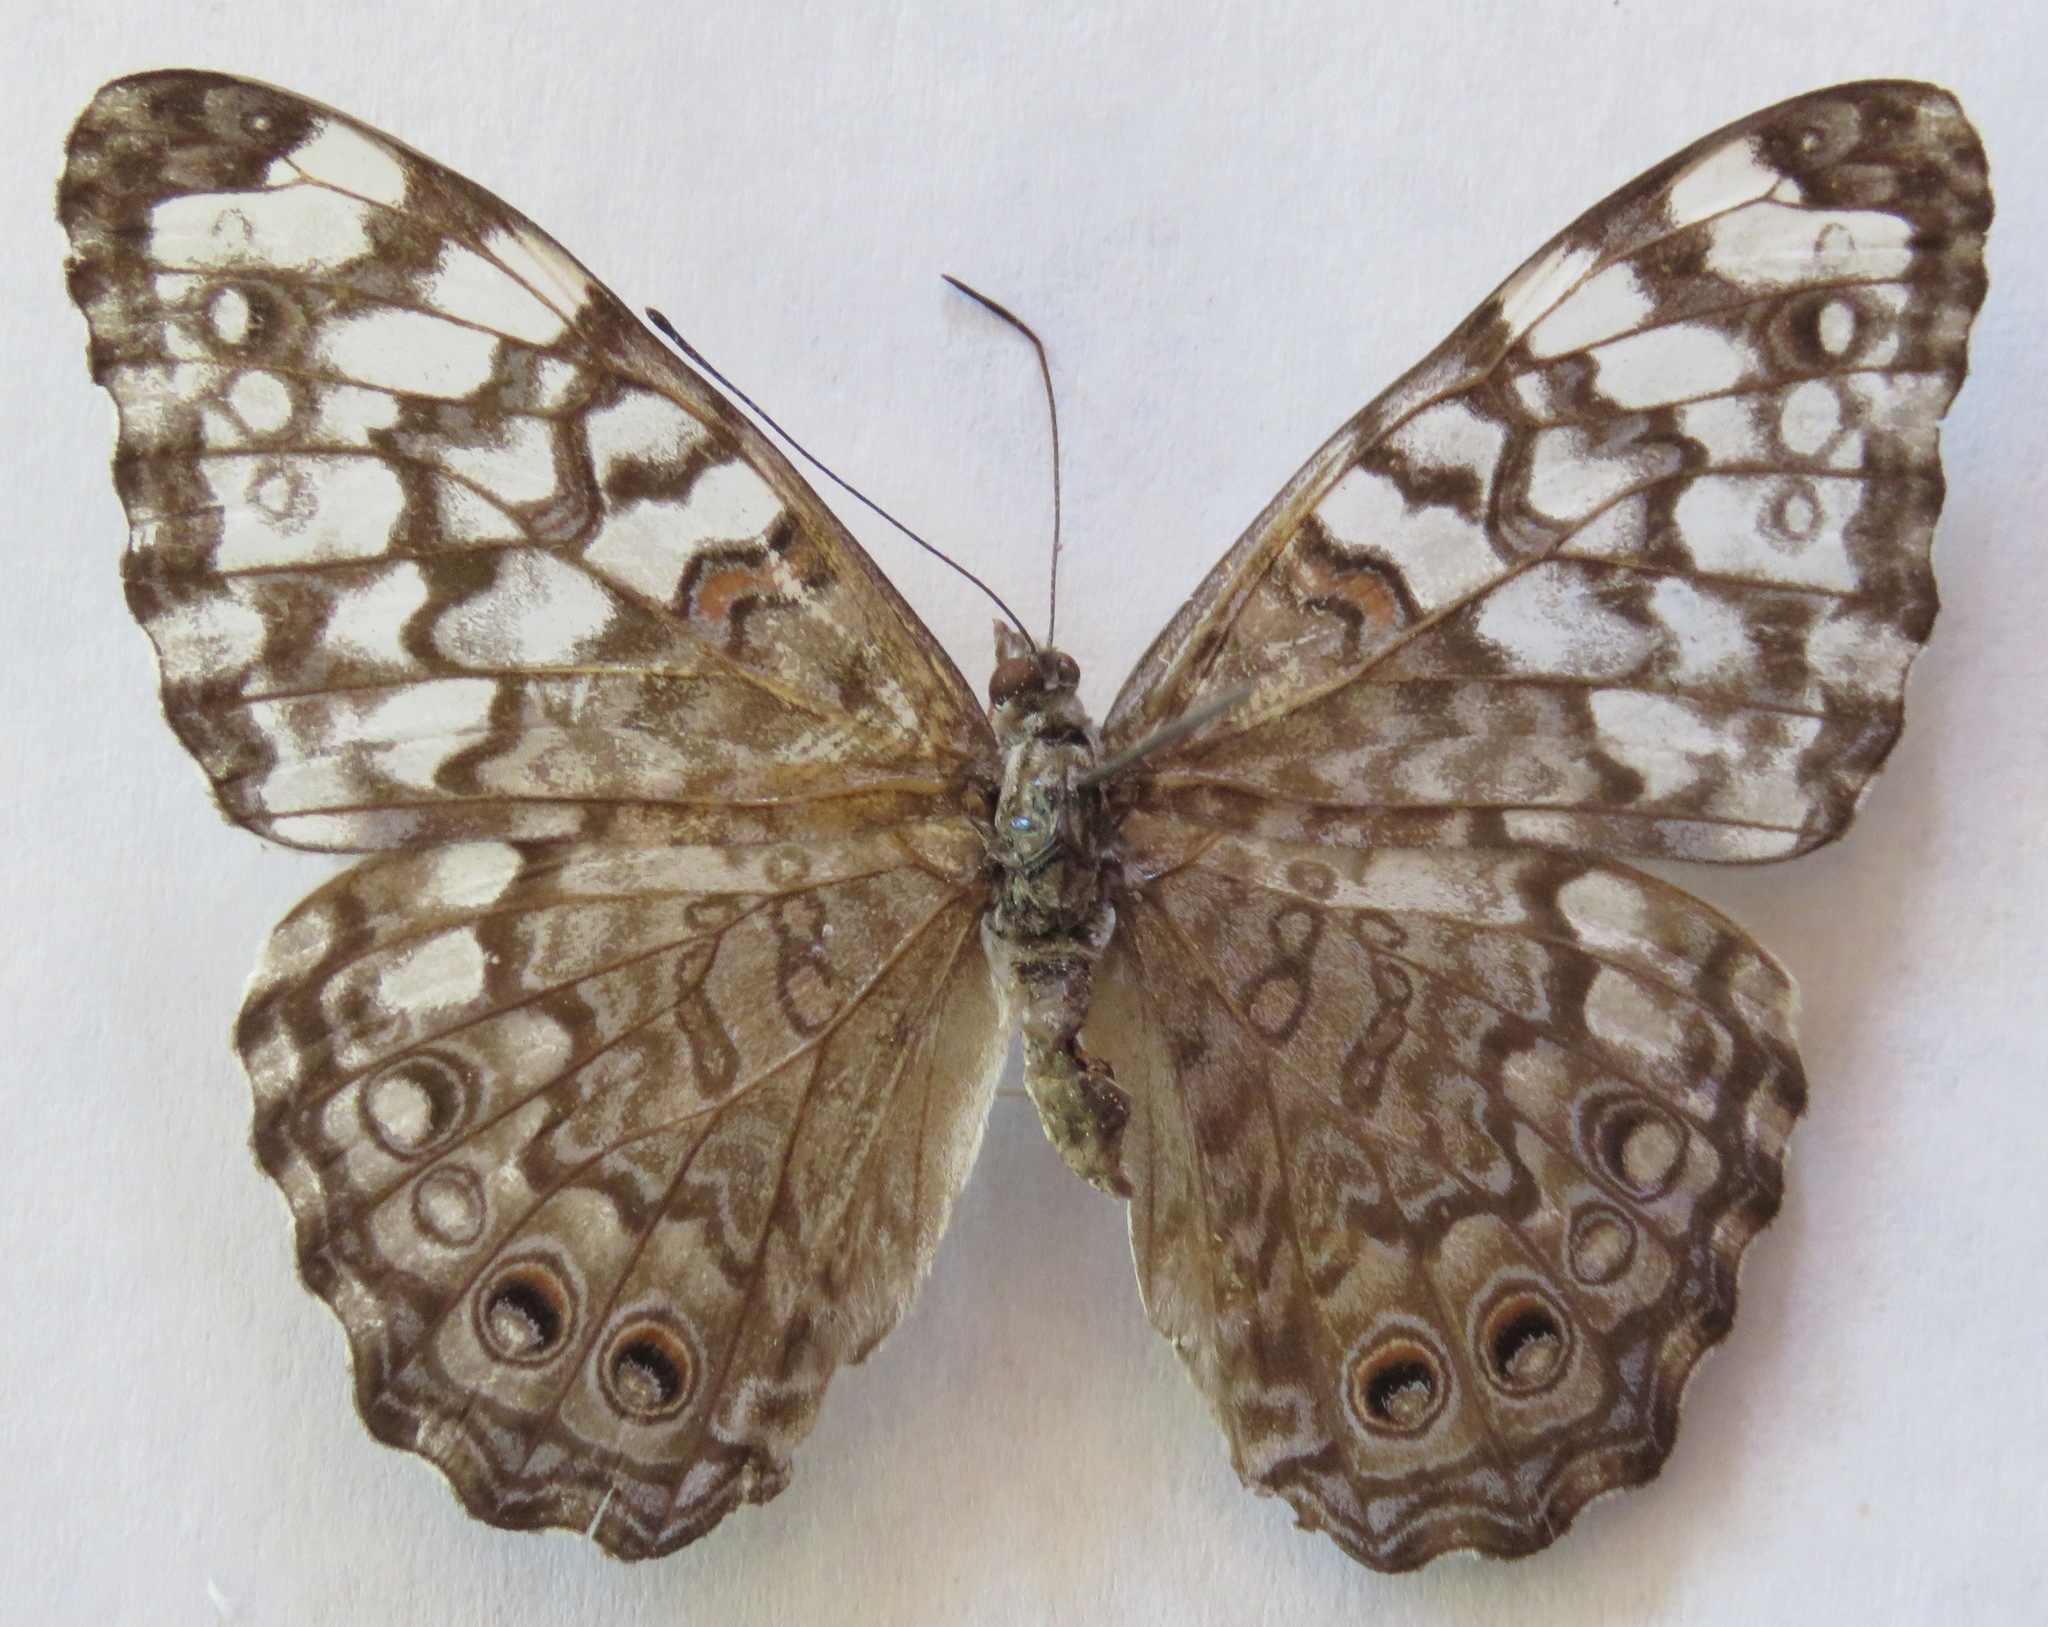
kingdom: Animalia
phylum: Arthropoda
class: Insecta
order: Lepidoptera
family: Nymphalidae
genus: Hamadryas
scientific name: Hamadryas februa
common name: Gray cracker
